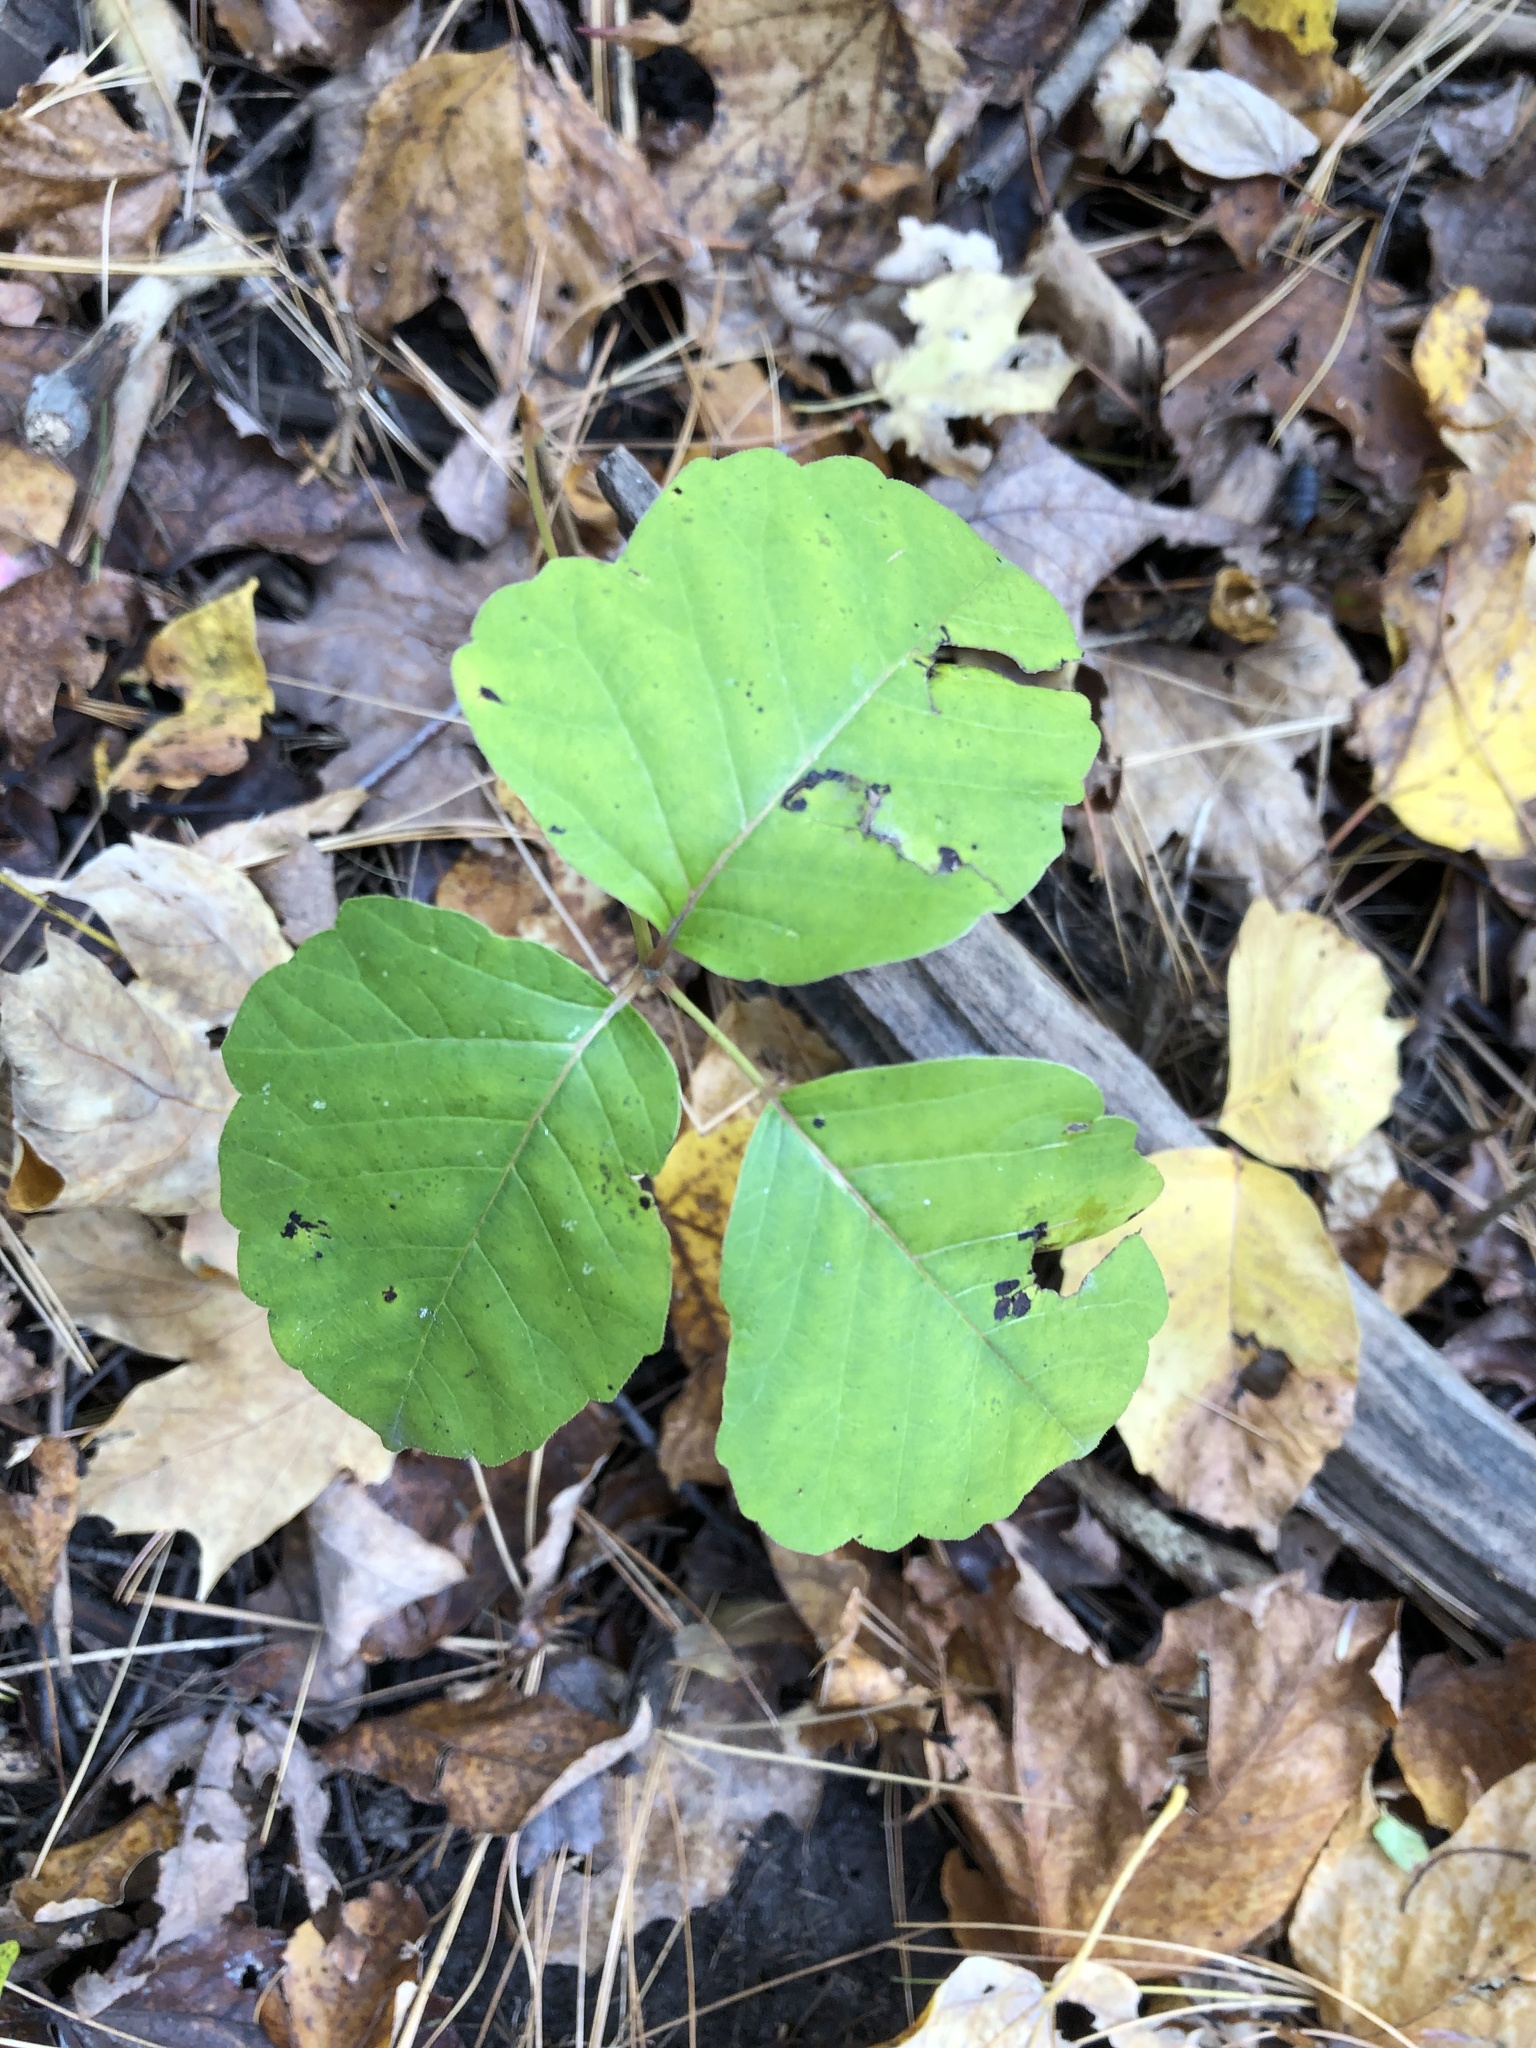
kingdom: Plantae
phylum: Tracheophyta
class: Magnoliopsida
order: Sapindales
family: Anacardiaceae
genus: Toxicodendron
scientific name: Toxicodendron rydbergii
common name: Rydberg's poison-ivy
